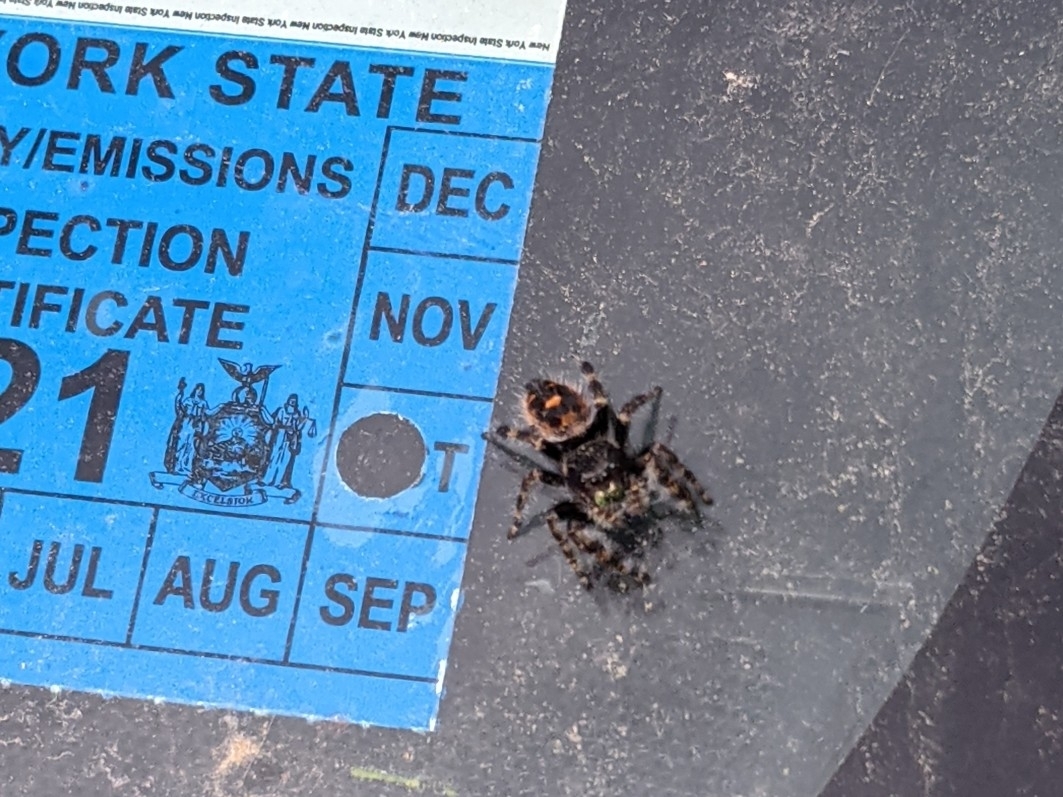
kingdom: Animalia
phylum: Arthropoda
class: Arachnida
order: Araneae
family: Salticidae
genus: Phidippus
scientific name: Phidippus audax
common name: Bold jumper
